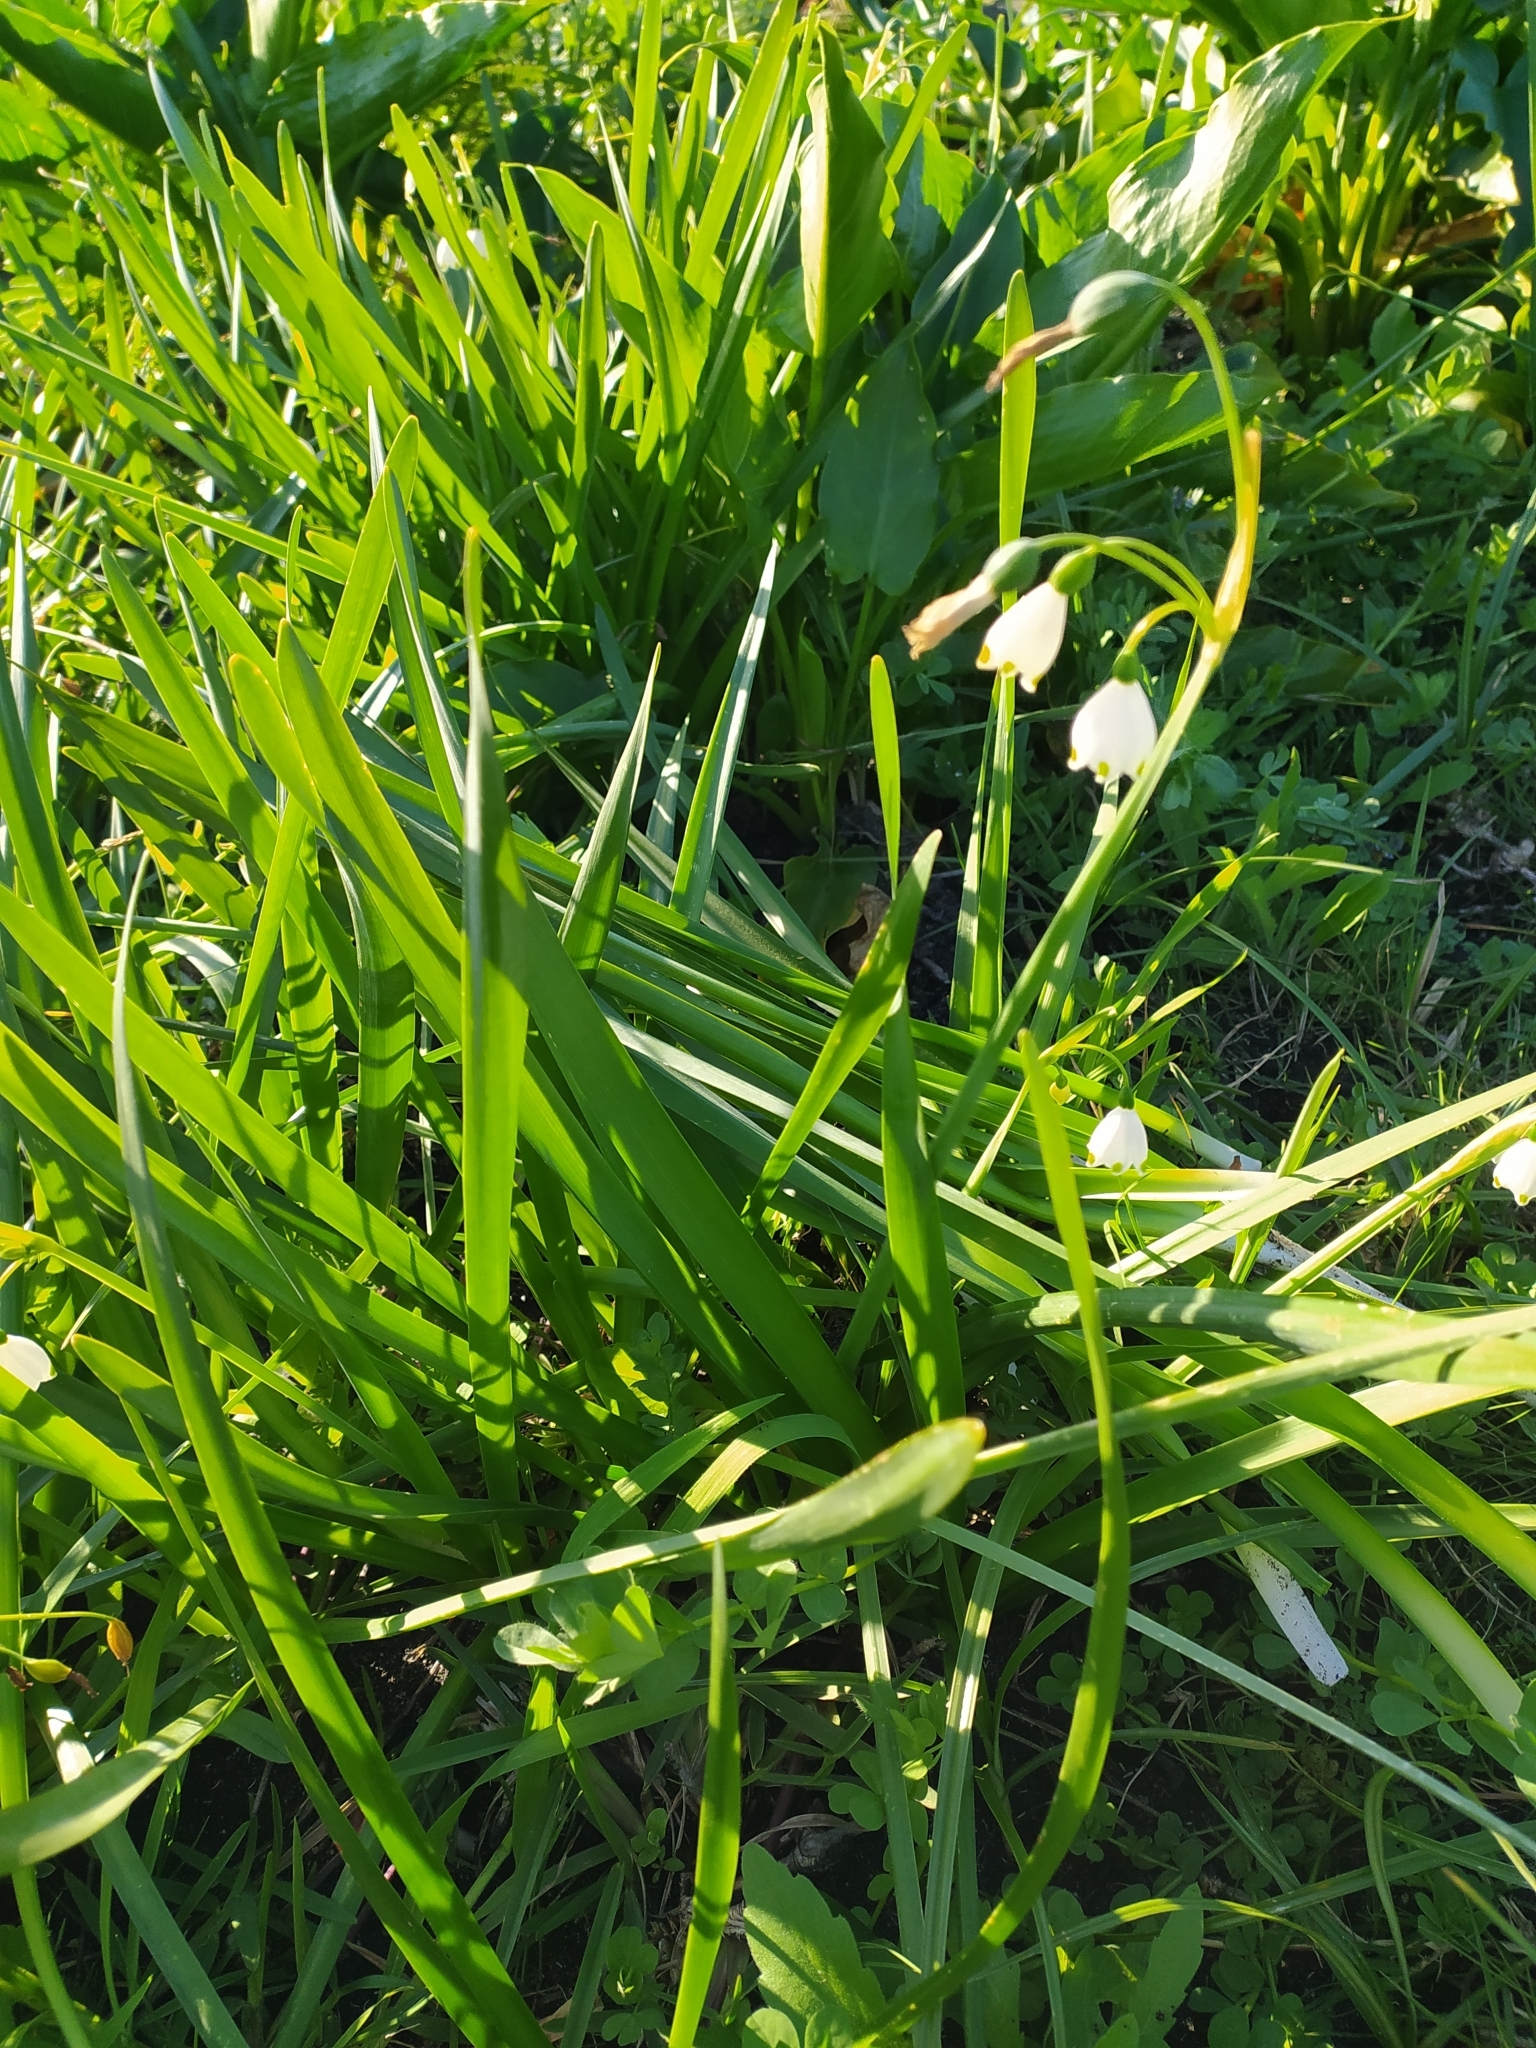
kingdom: Plantae
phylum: Tracheophyta
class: Liliopsida
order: Asparagales
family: Amaryllidaceae
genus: Leucojum
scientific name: Leucojum aestivum
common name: Summer snowflake
